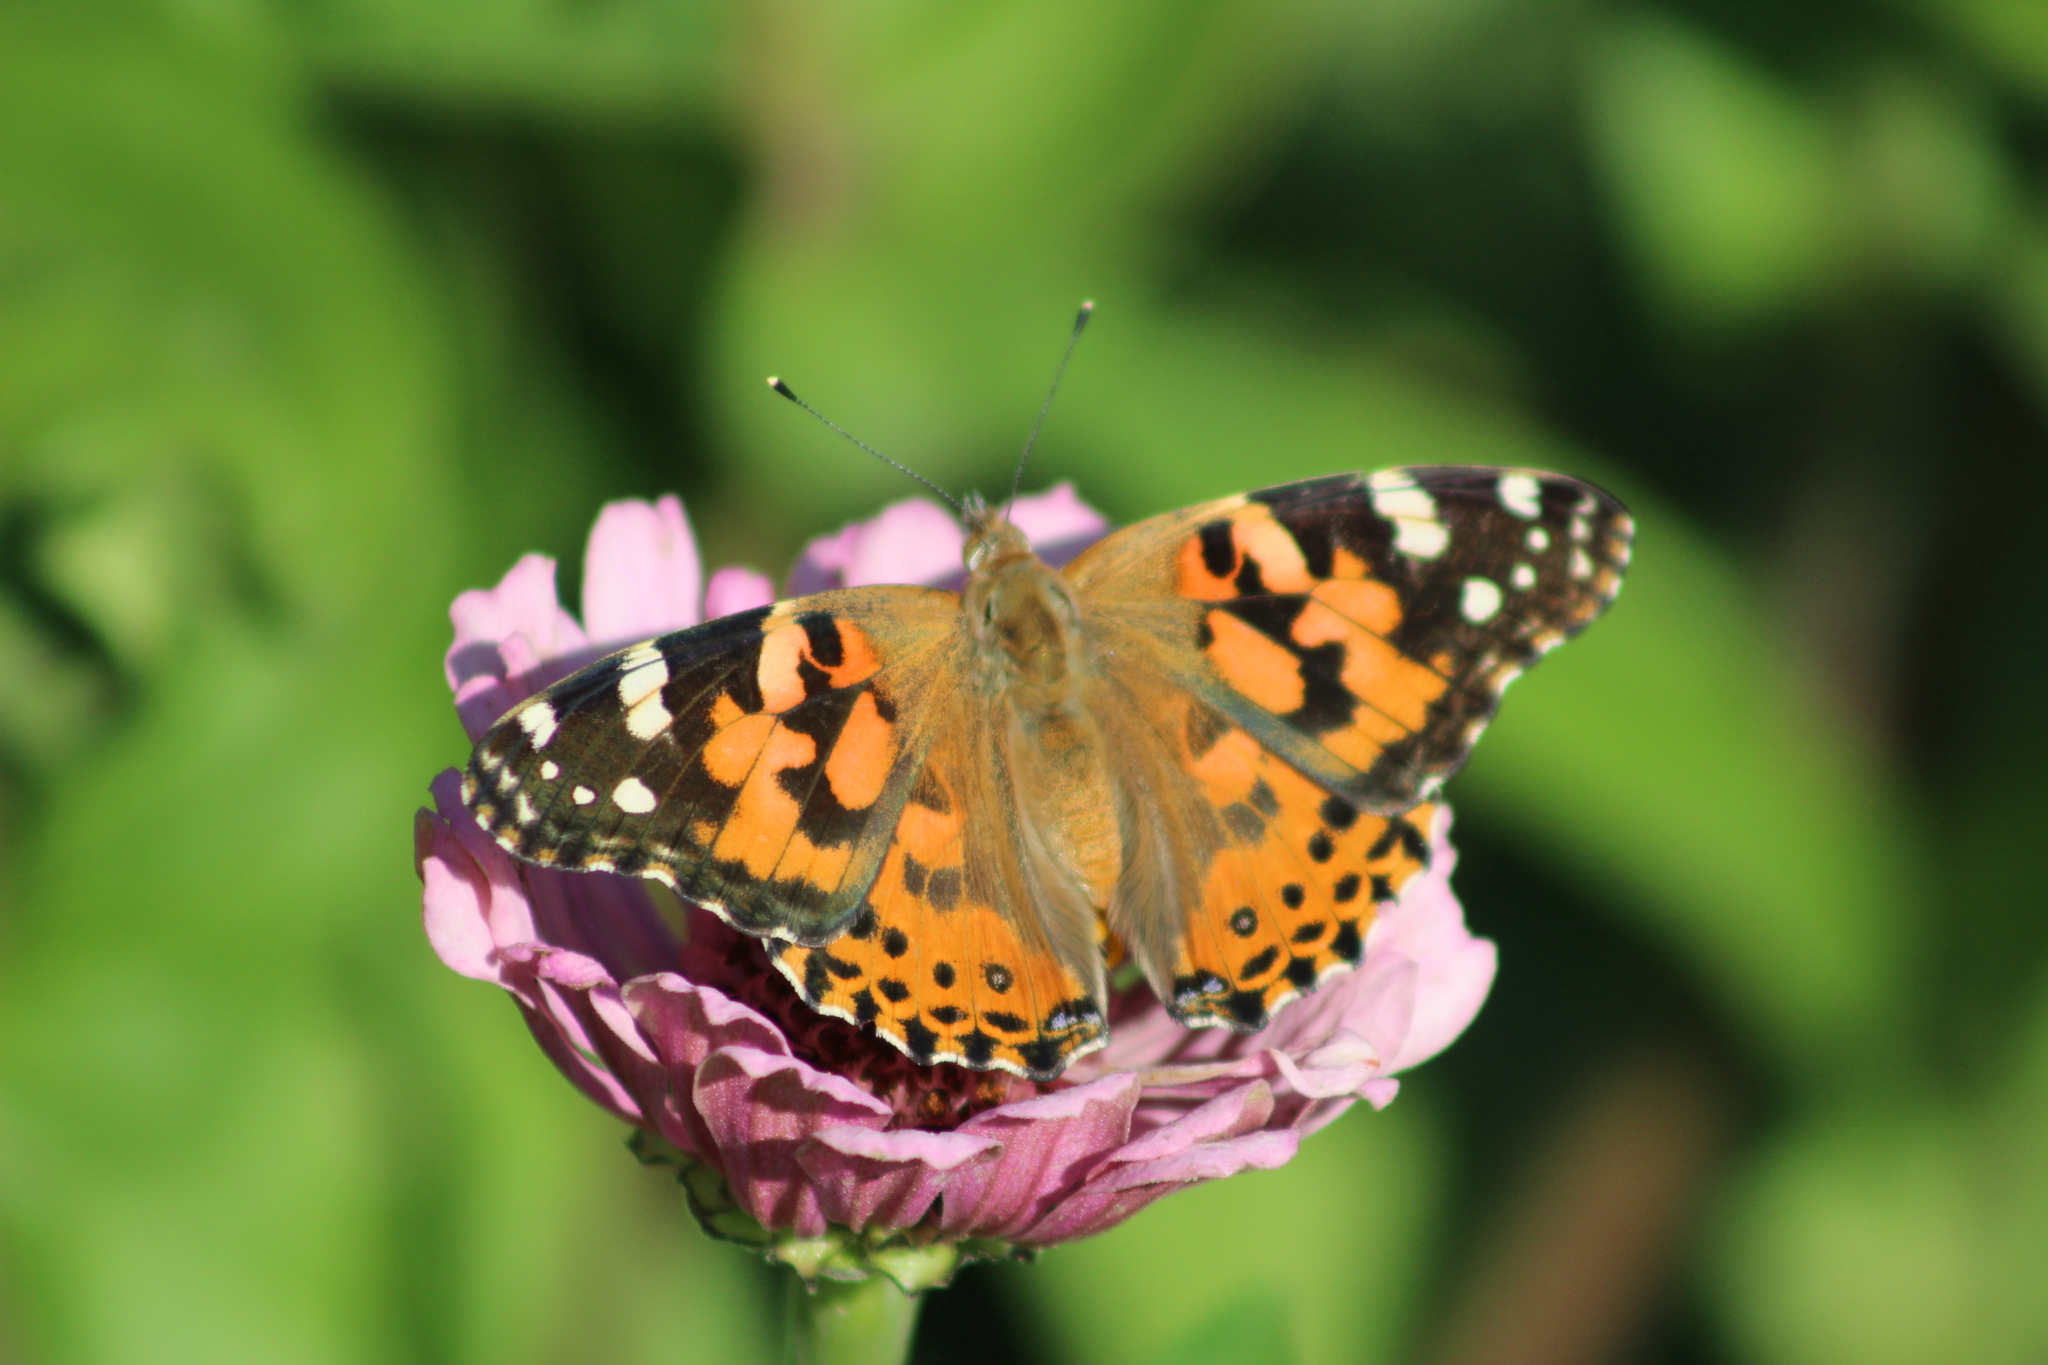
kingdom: Animalia
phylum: Arthropoda
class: Insecta
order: Lepidoptera
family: Nymphalidae
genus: Vanessa
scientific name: Vanessa cardui
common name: Painted lady
